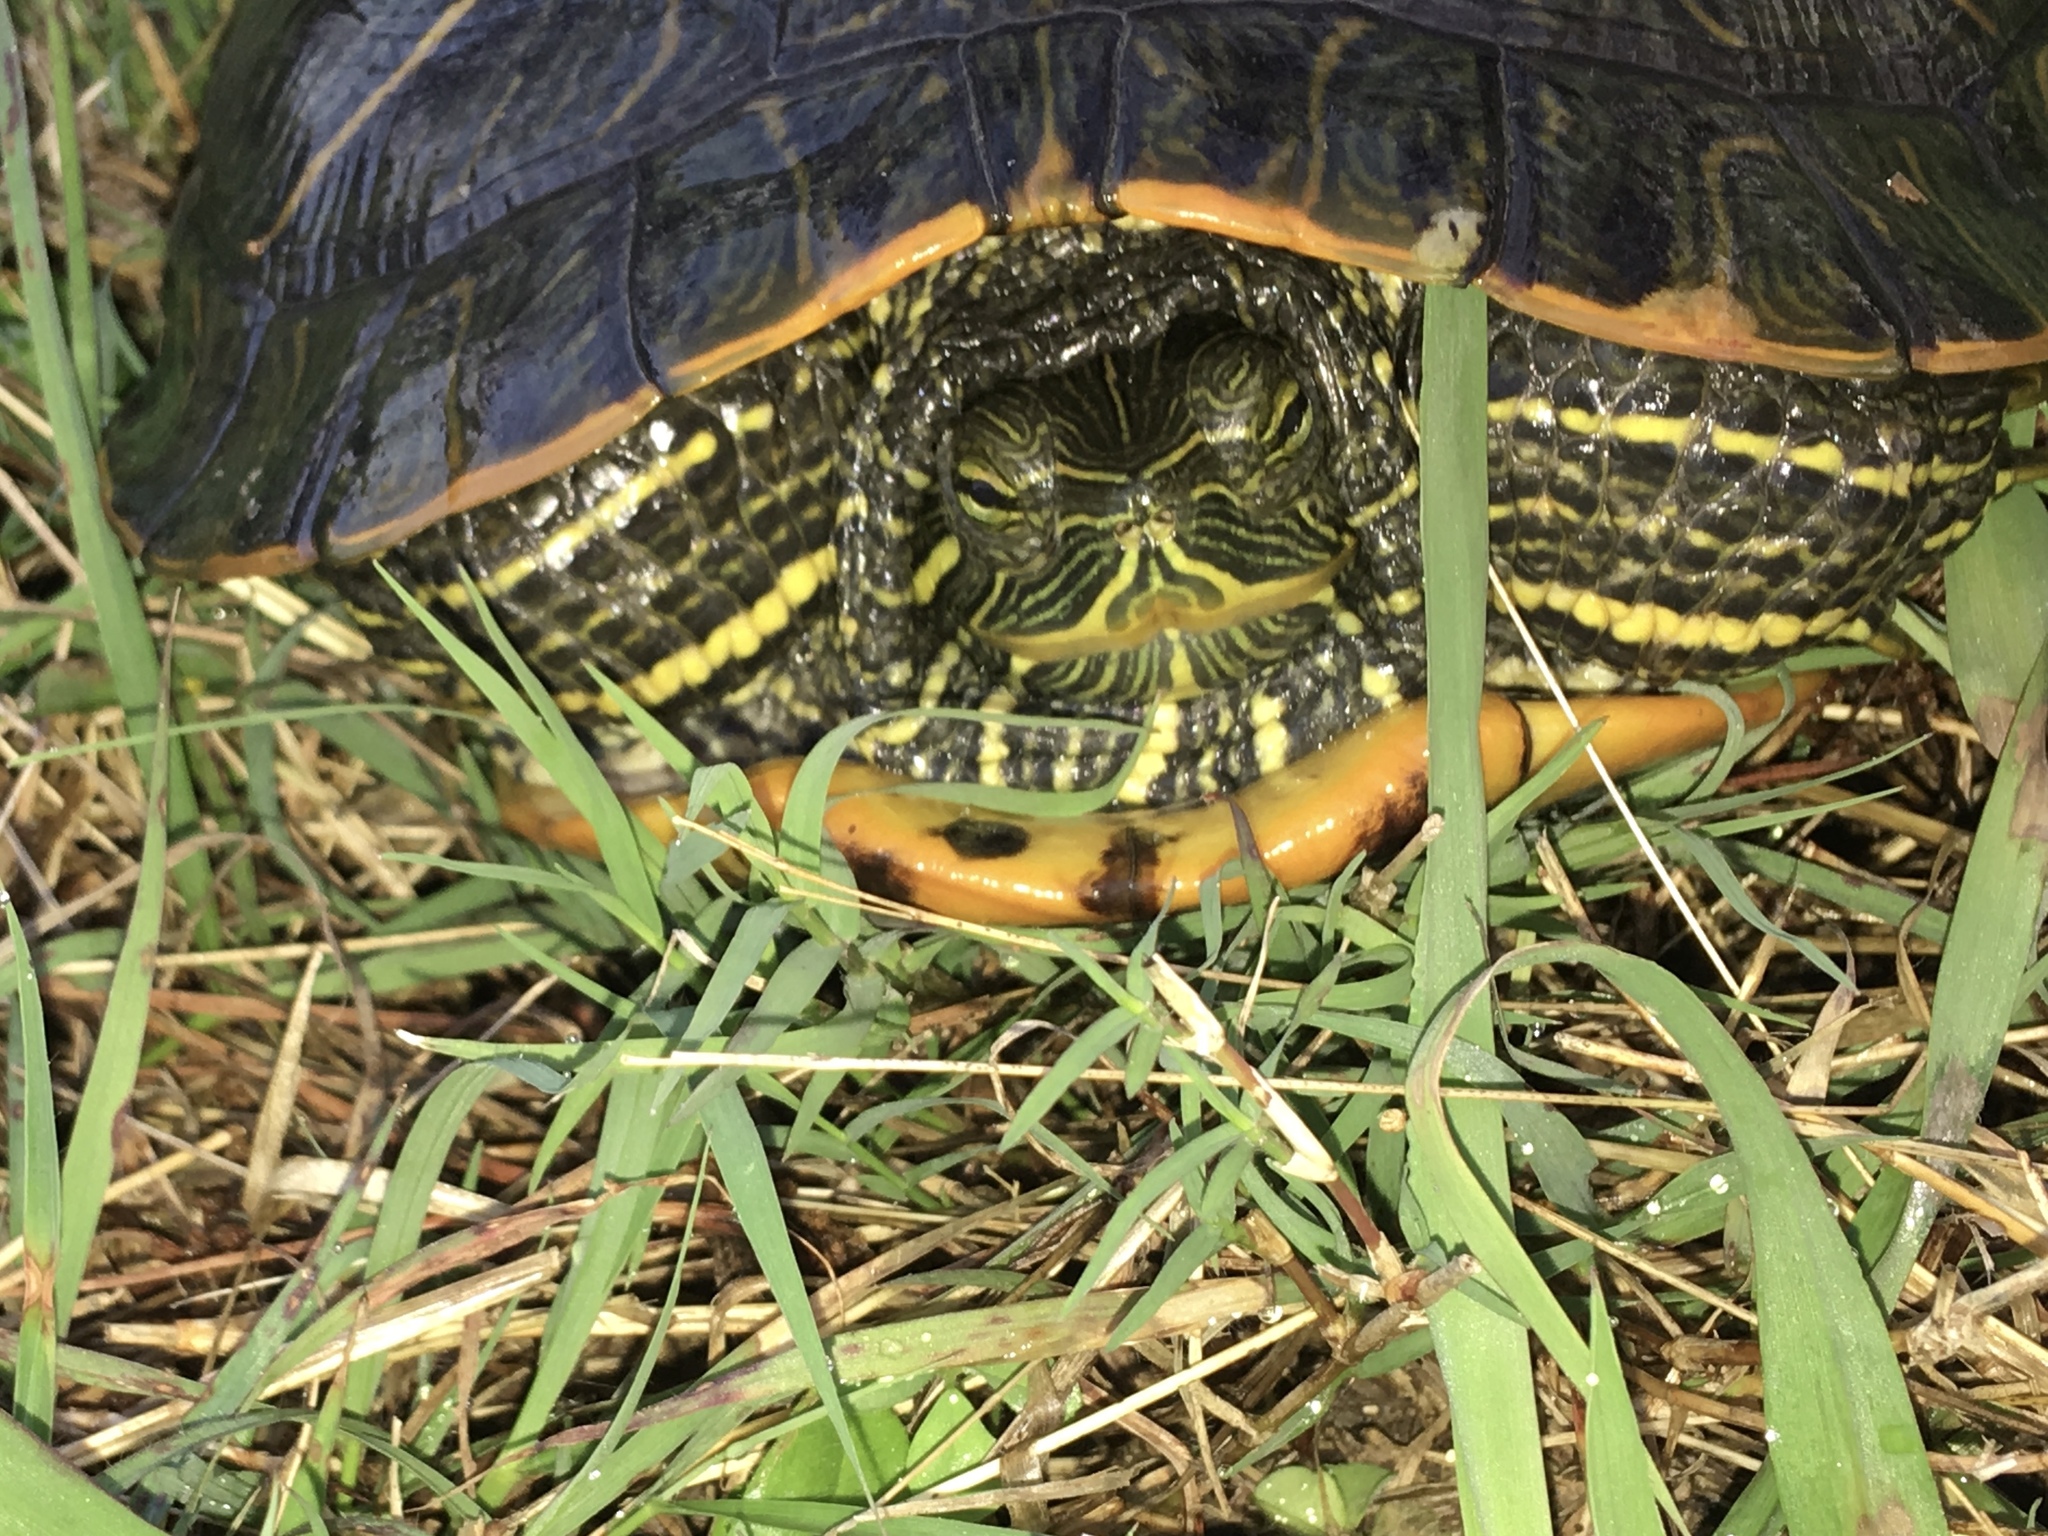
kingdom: Animalia
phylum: Chordata
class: Testudines
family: Emydidae
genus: Trachemys
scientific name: Trachemys scripta
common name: Slider
